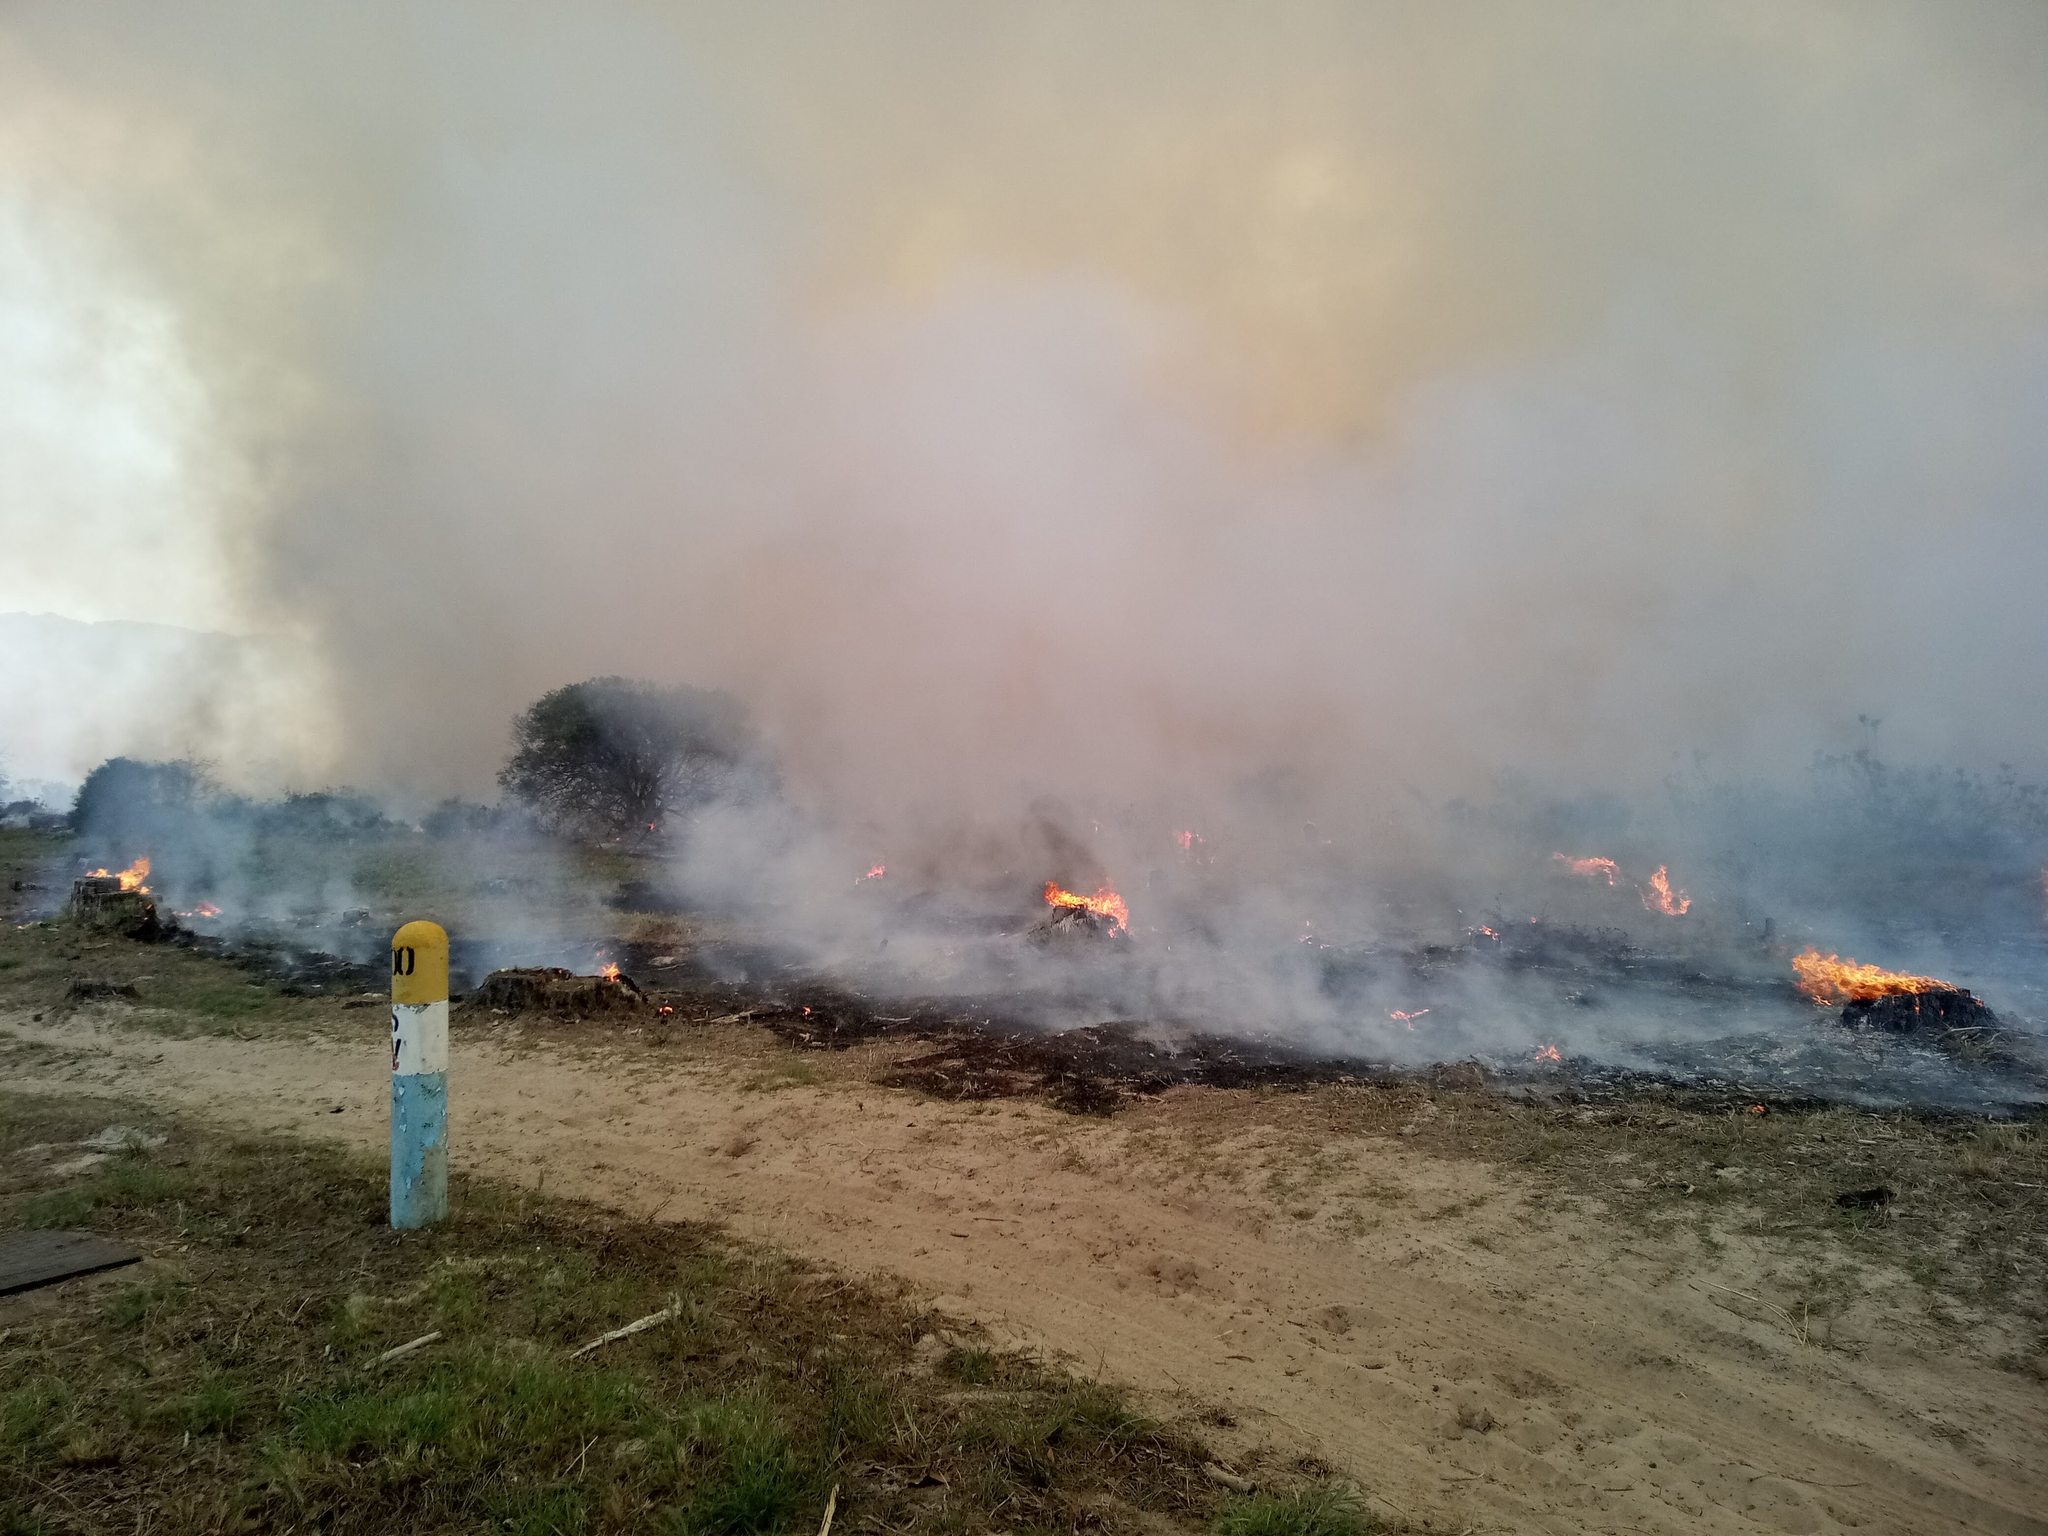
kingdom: Plantae
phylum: Tracheophyta
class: Magnoliopsida
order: Asterales
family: Asteraceae
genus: Osteospermum
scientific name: Osteospermum moniliferum
